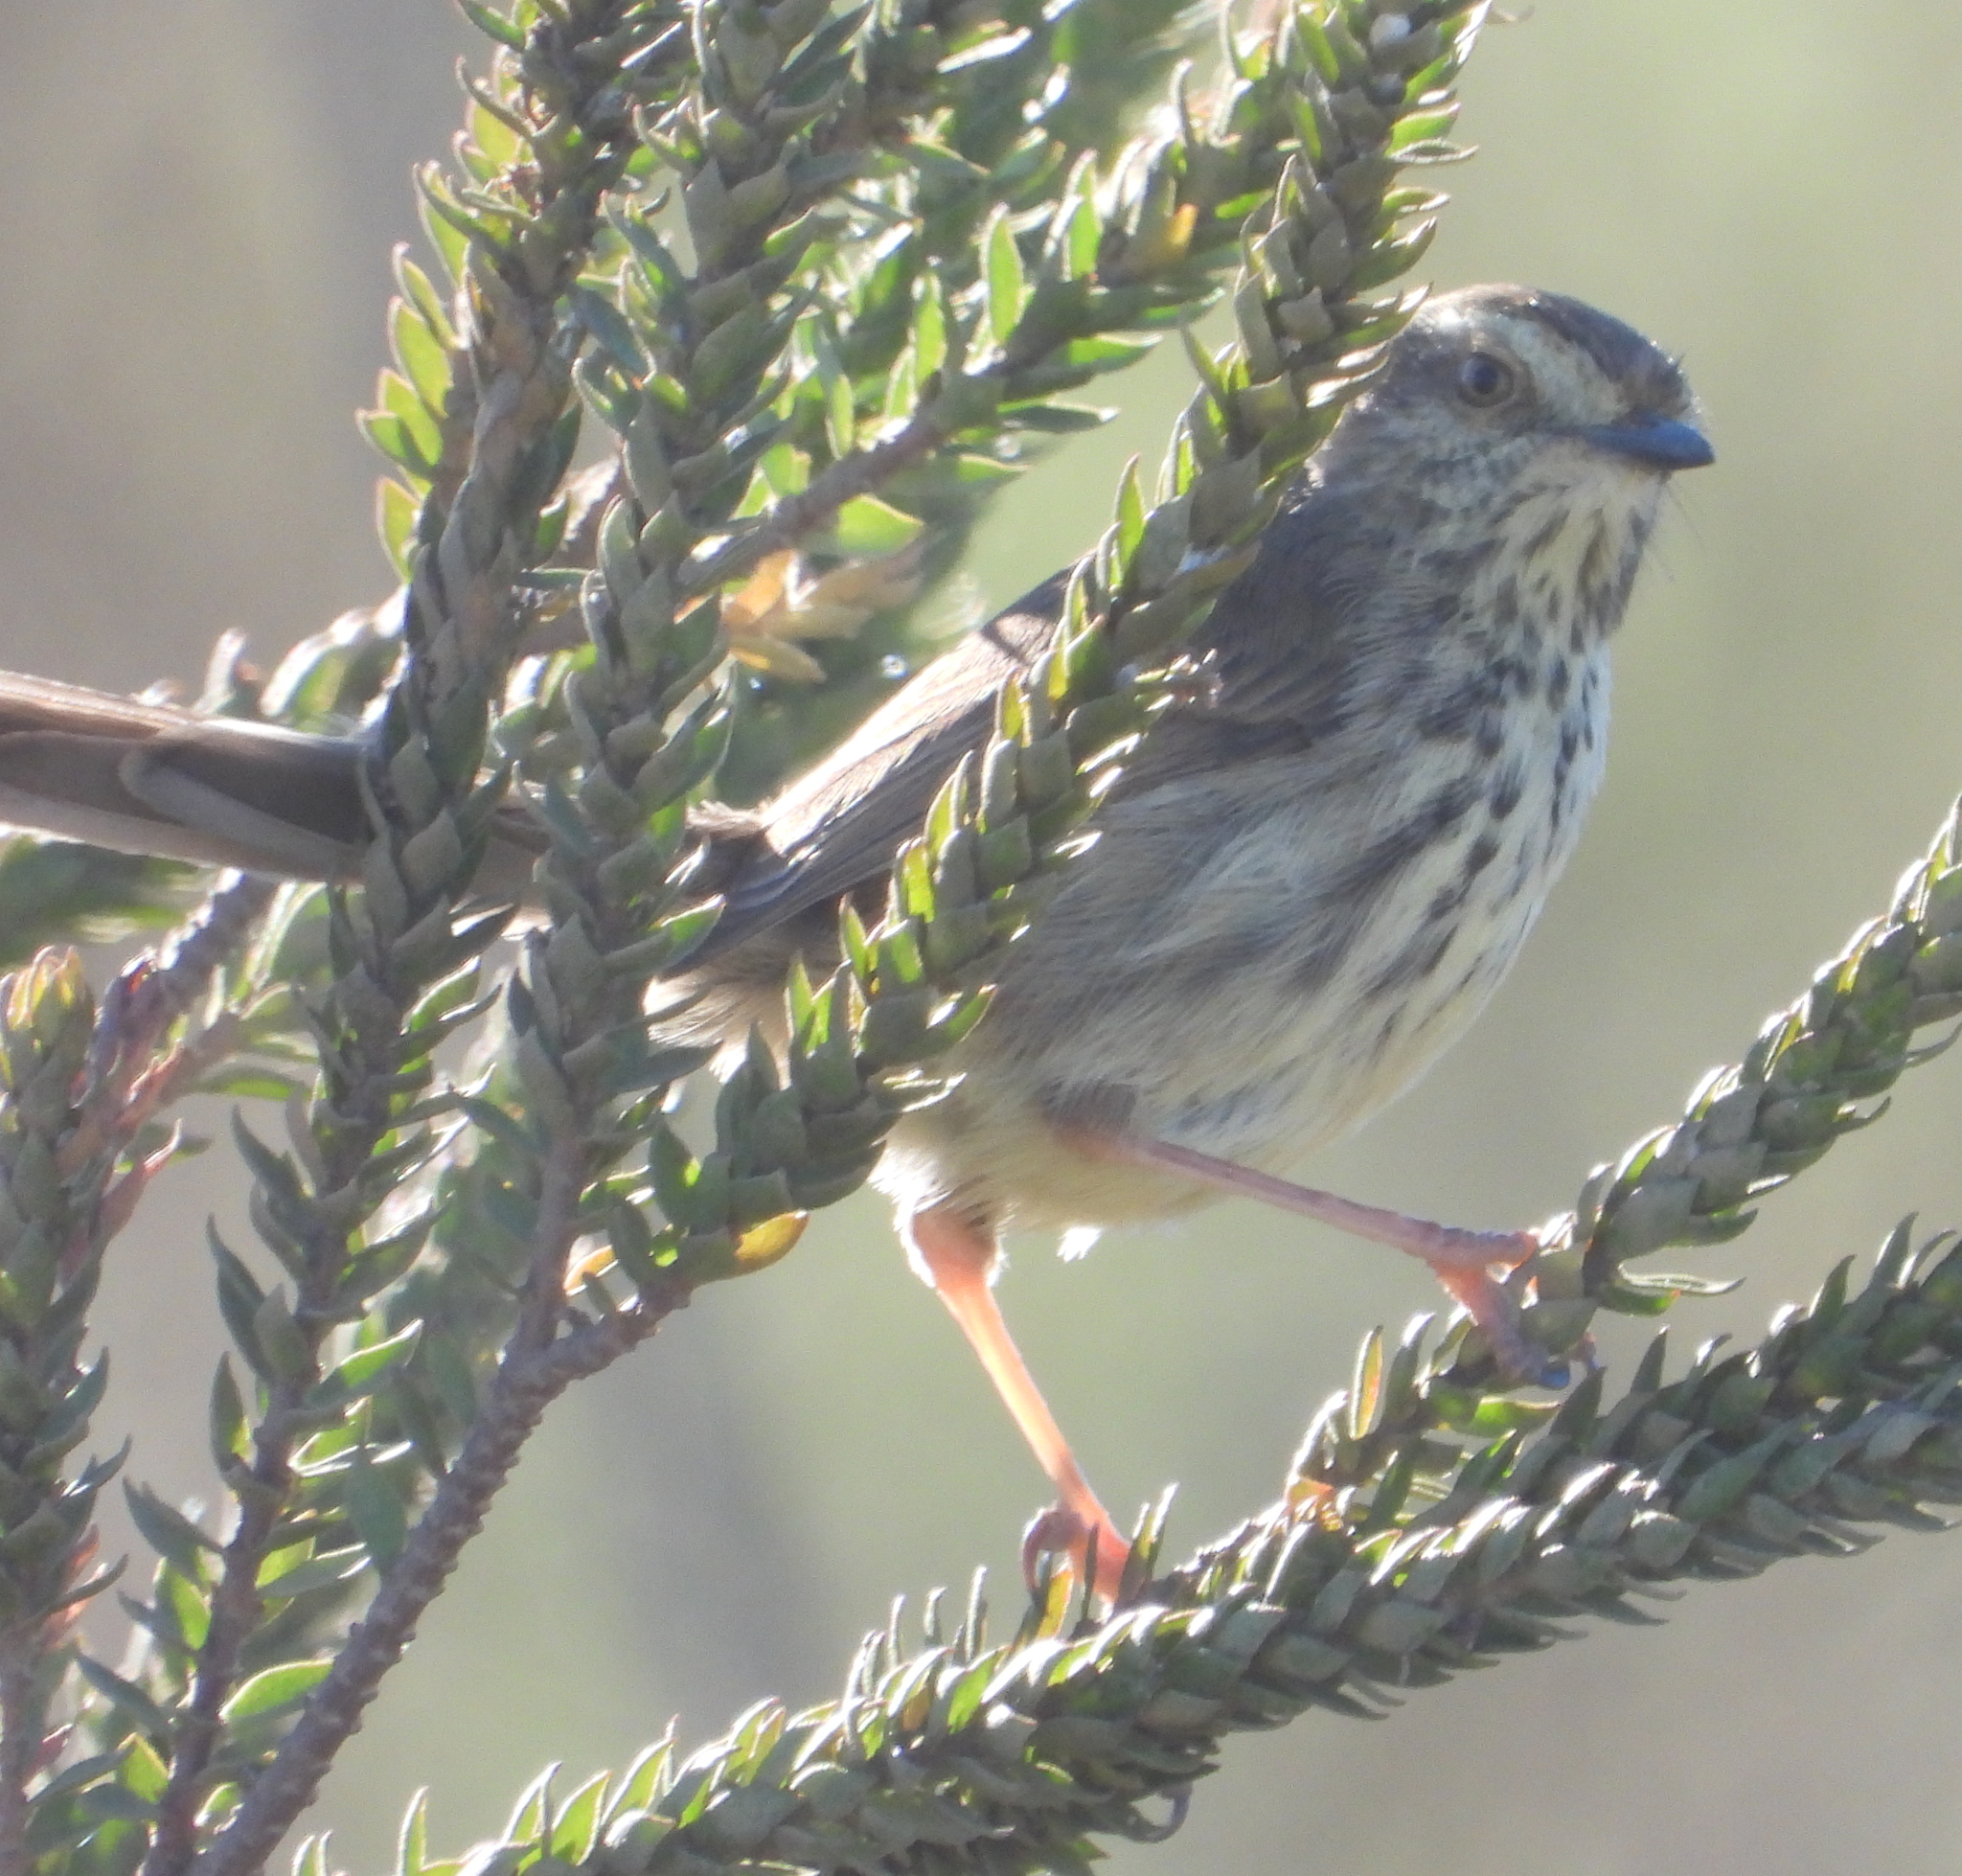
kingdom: Animalia
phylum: Chordata
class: Aves
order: Passeriformes
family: Cisticolidae
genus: Prinia
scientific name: Prinia maculosa
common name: Karoo prinia
